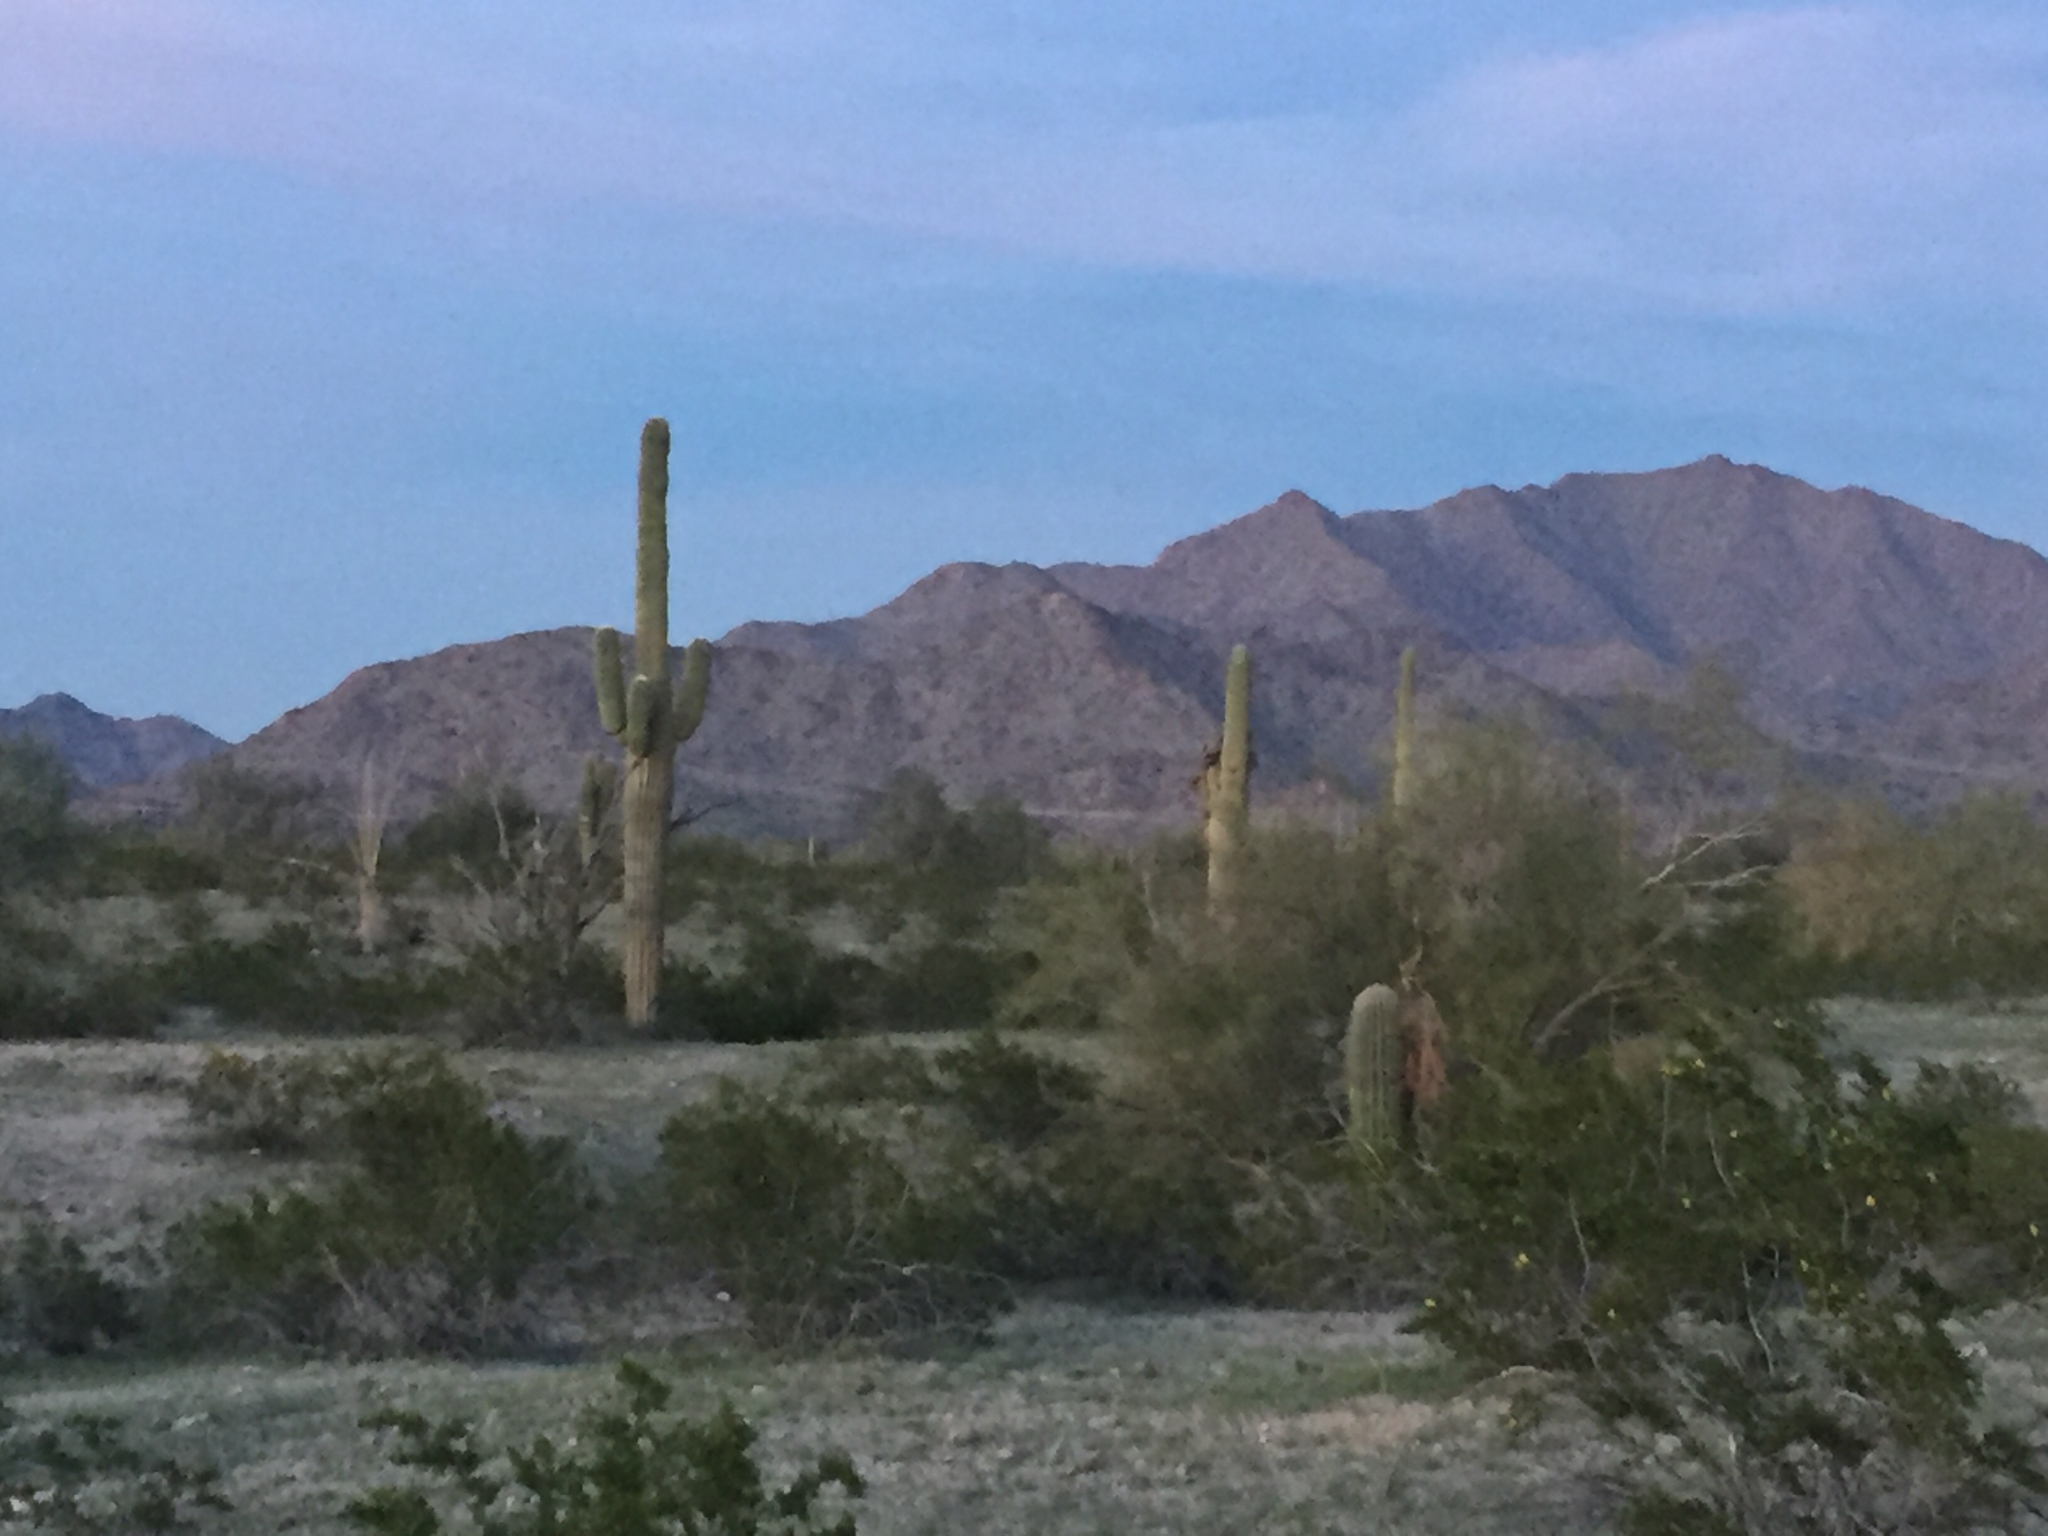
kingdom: Plantae
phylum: Tracheophyta
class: Magnoliopsida
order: Caryophyllales
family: Cactaceae
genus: Carnegiea
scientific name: Carnegiea gigantea
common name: Saguaro
